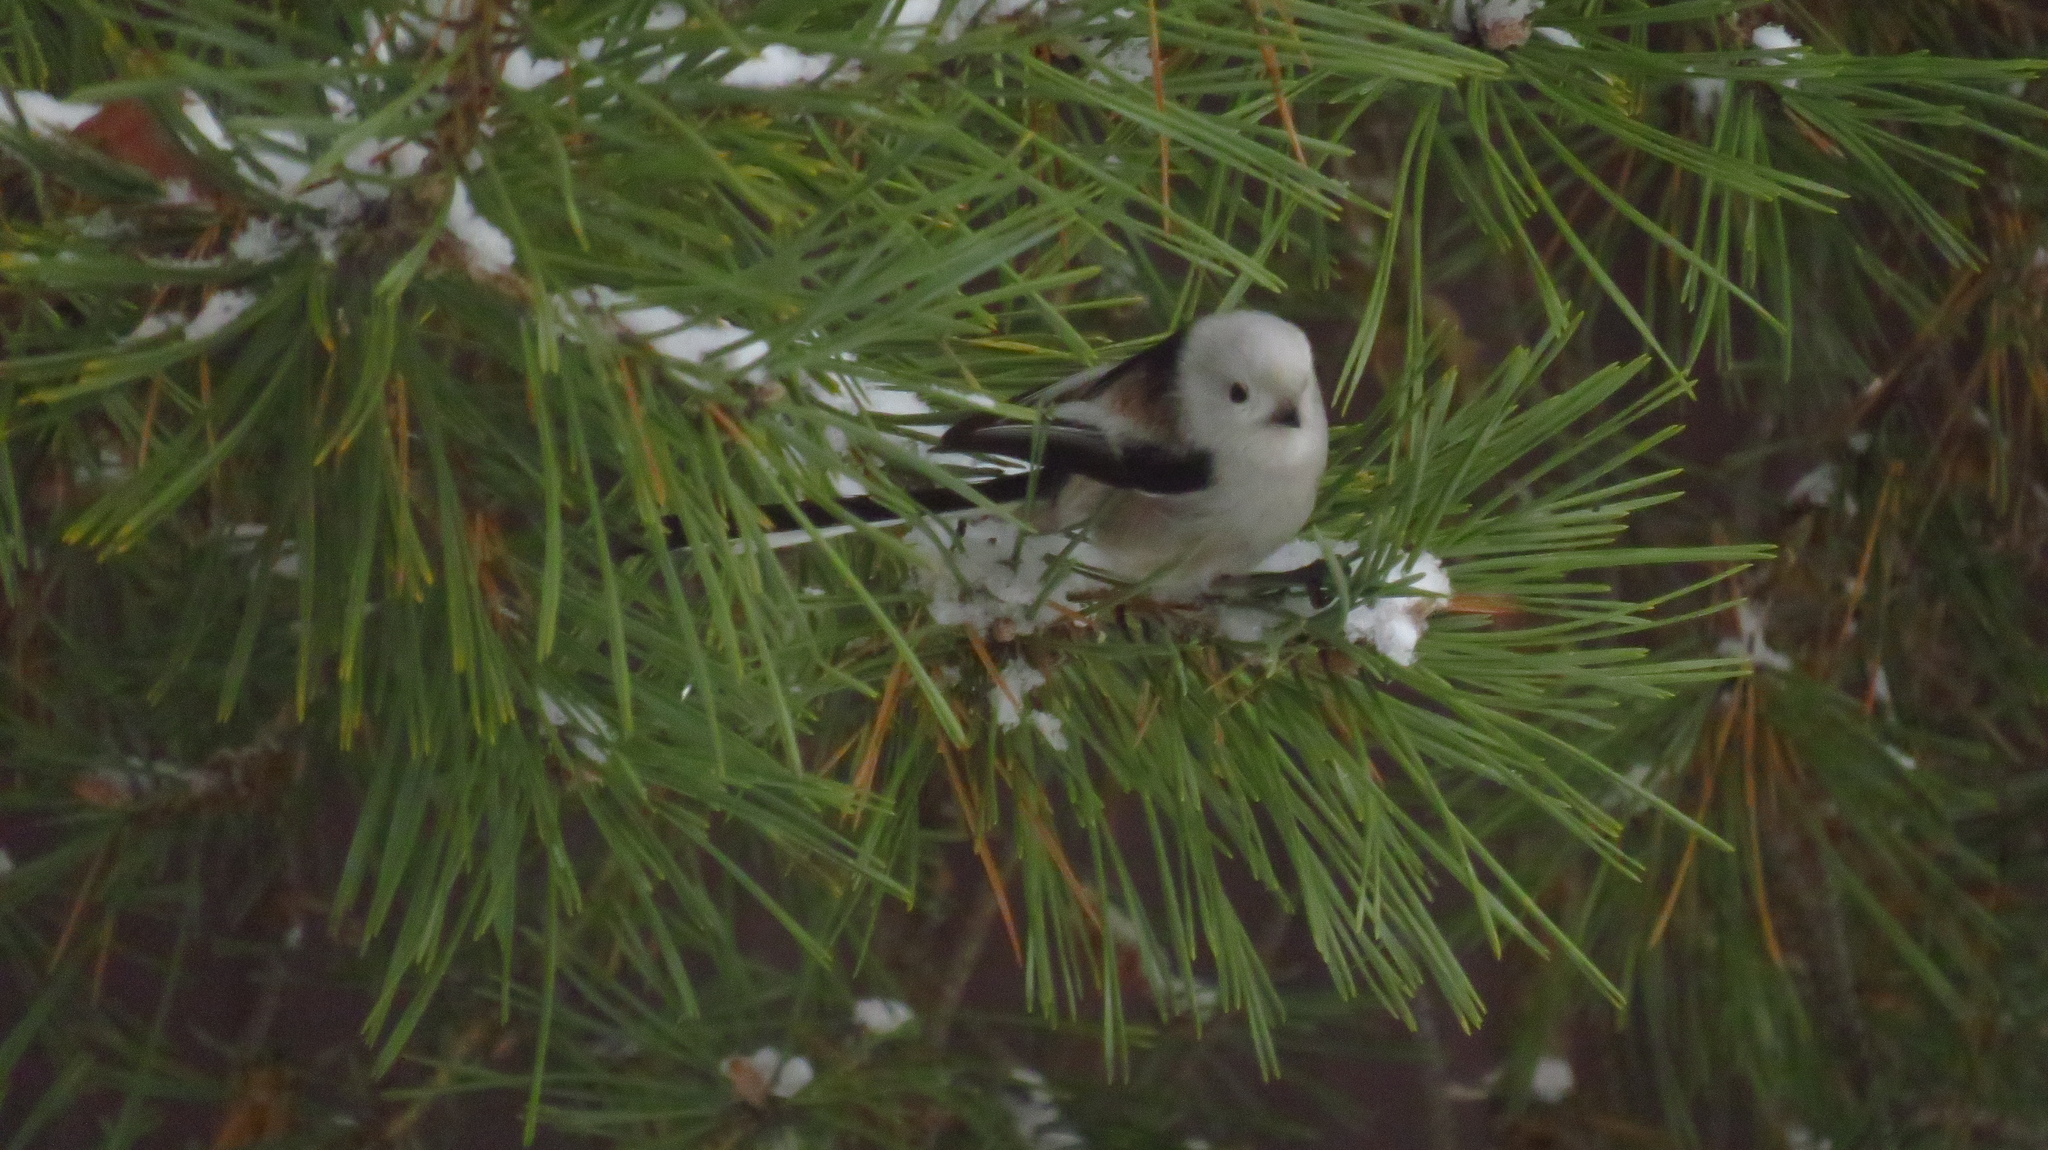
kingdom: Animalia
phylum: Chordata
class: Aves
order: Passeriformes
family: Aegithalidae
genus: Aegithalos
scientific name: Aegithalos caudatus
